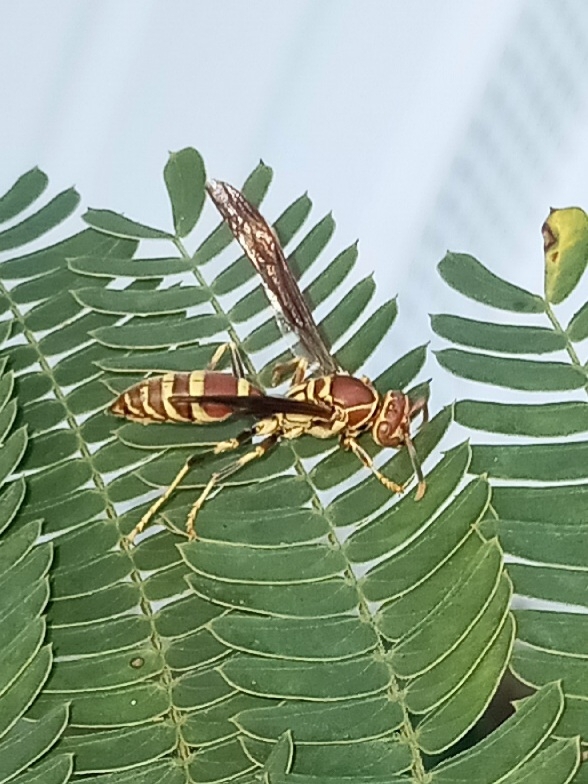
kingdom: Animalia
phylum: Arthropoda
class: Insecta
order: Hymenoptera
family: Eumenidae
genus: Polistes
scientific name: Polistes exclamans
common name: Paper wasp
